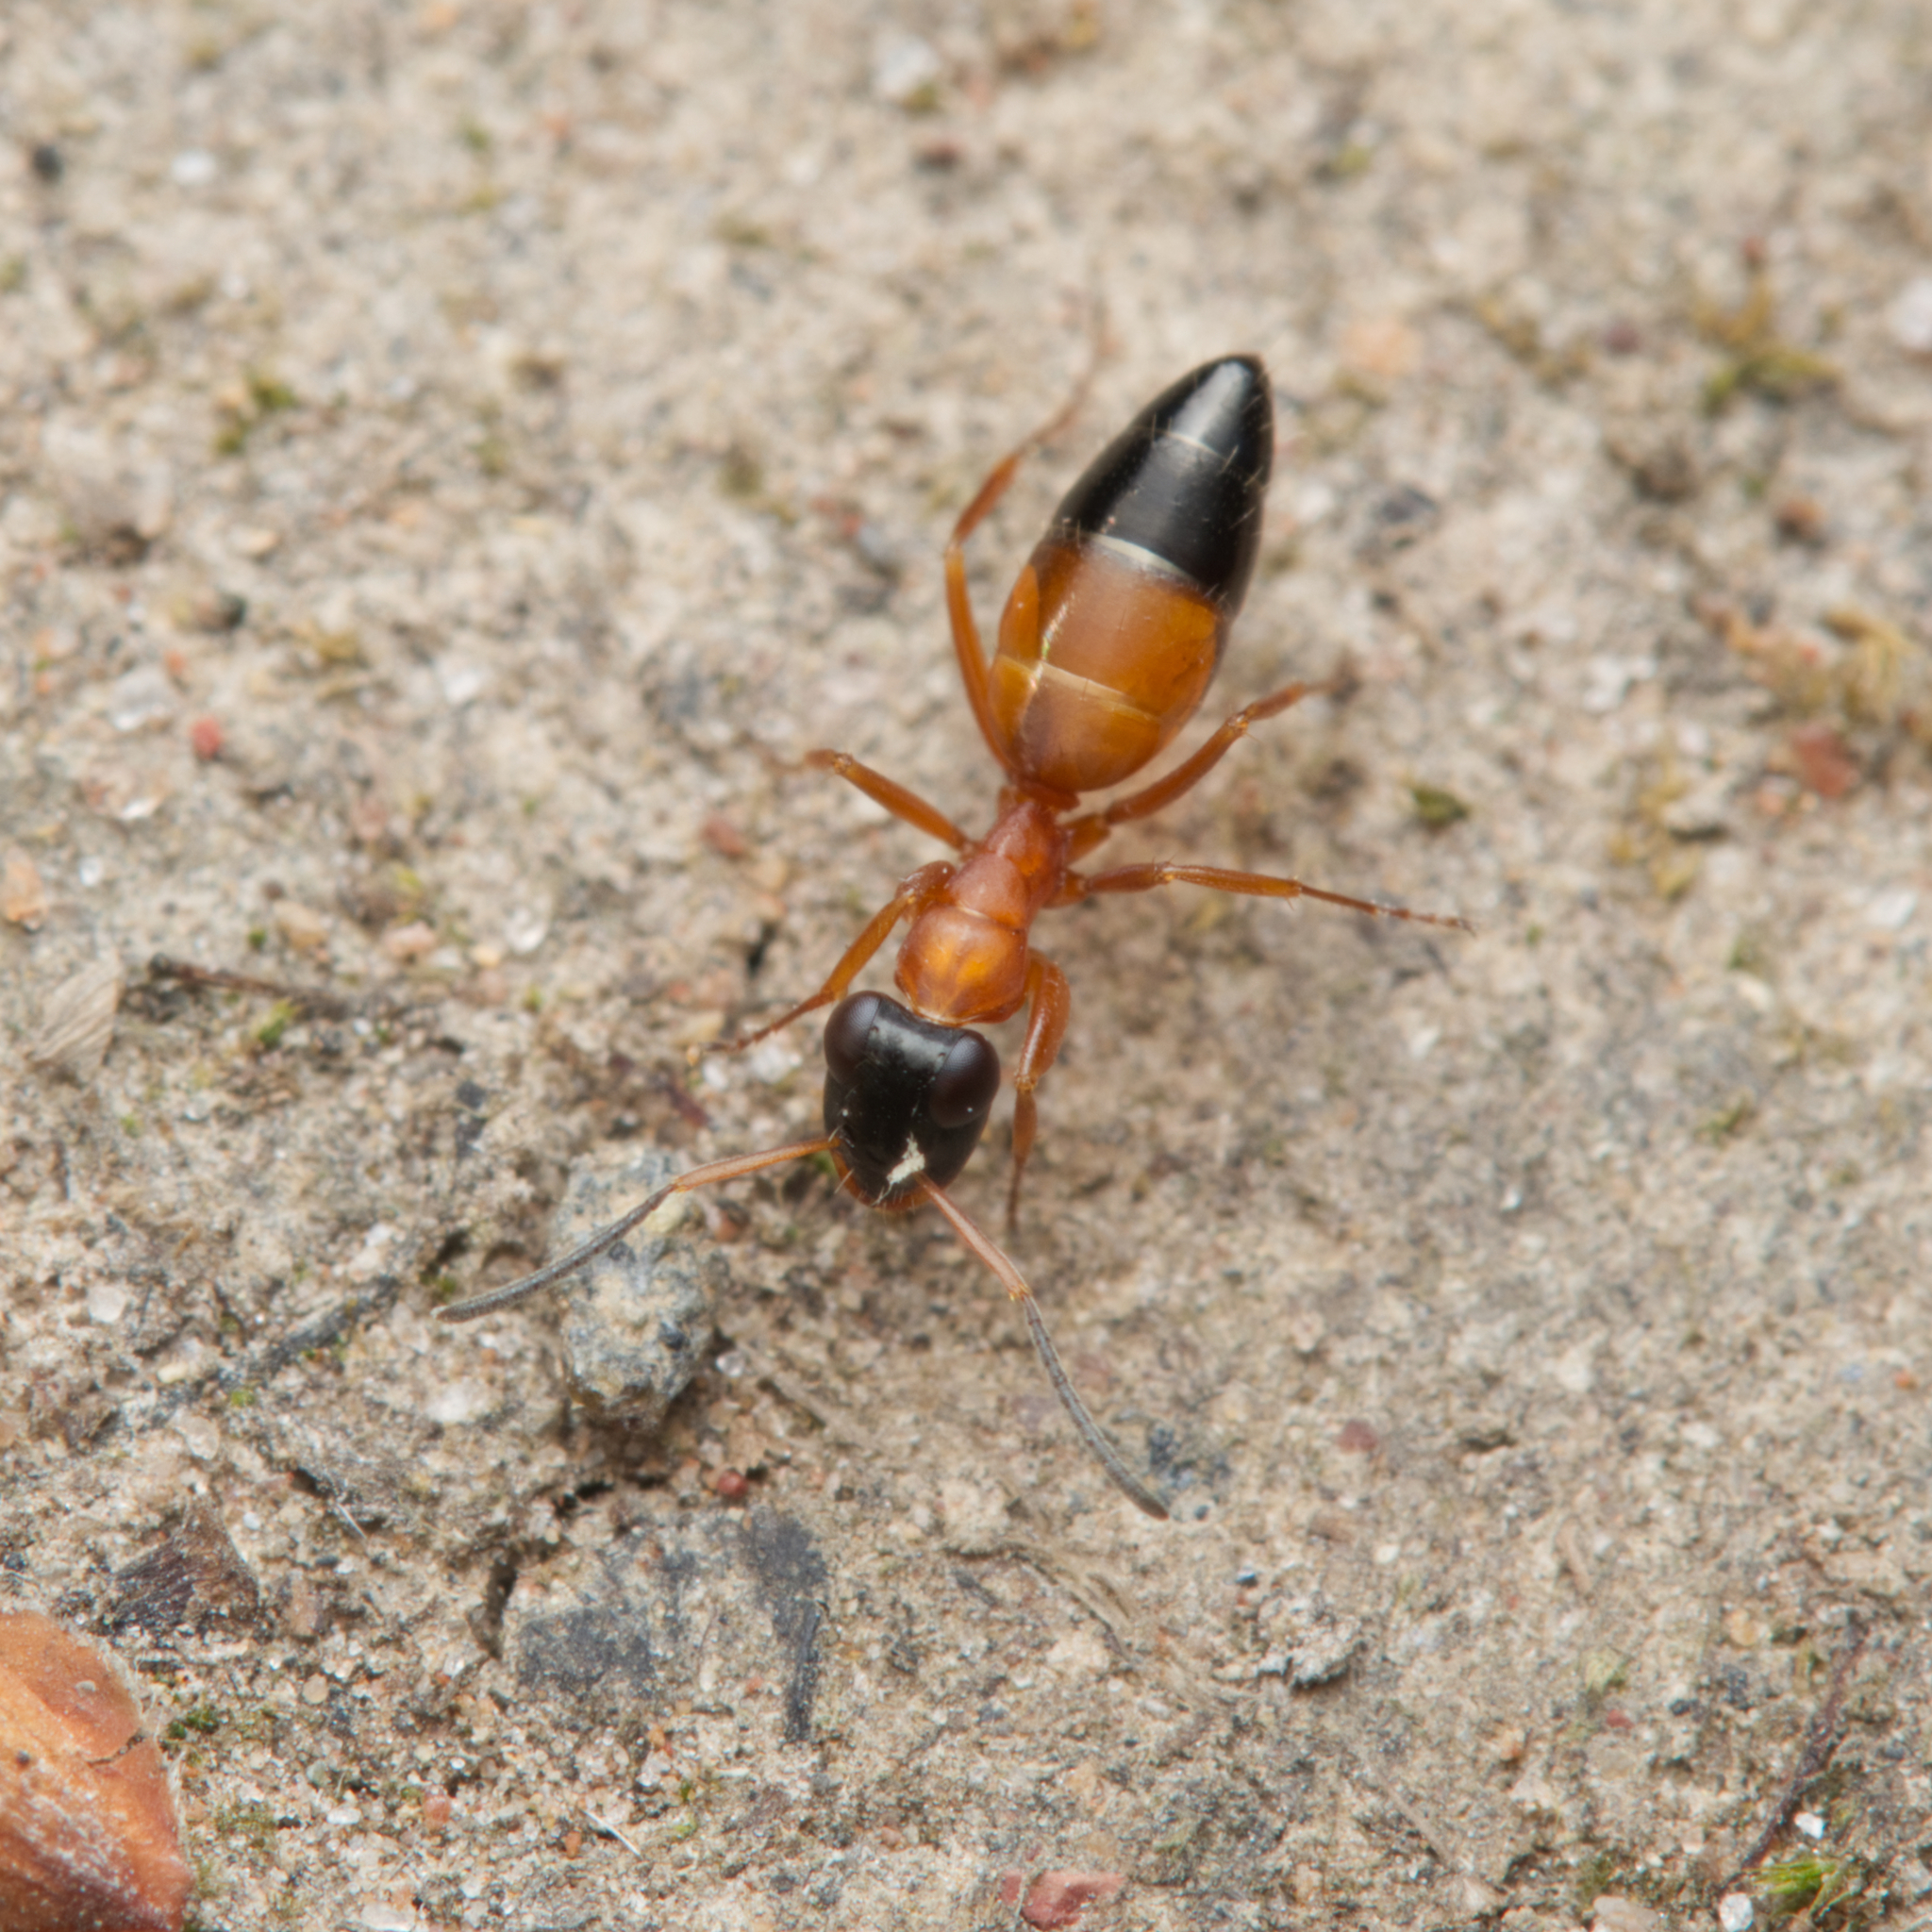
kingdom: Animalia
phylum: Arthropoda
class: Insecta
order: Hymenoptera
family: Formicidae
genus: Opisthopsis
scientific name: Opisthopsis rufithorax
